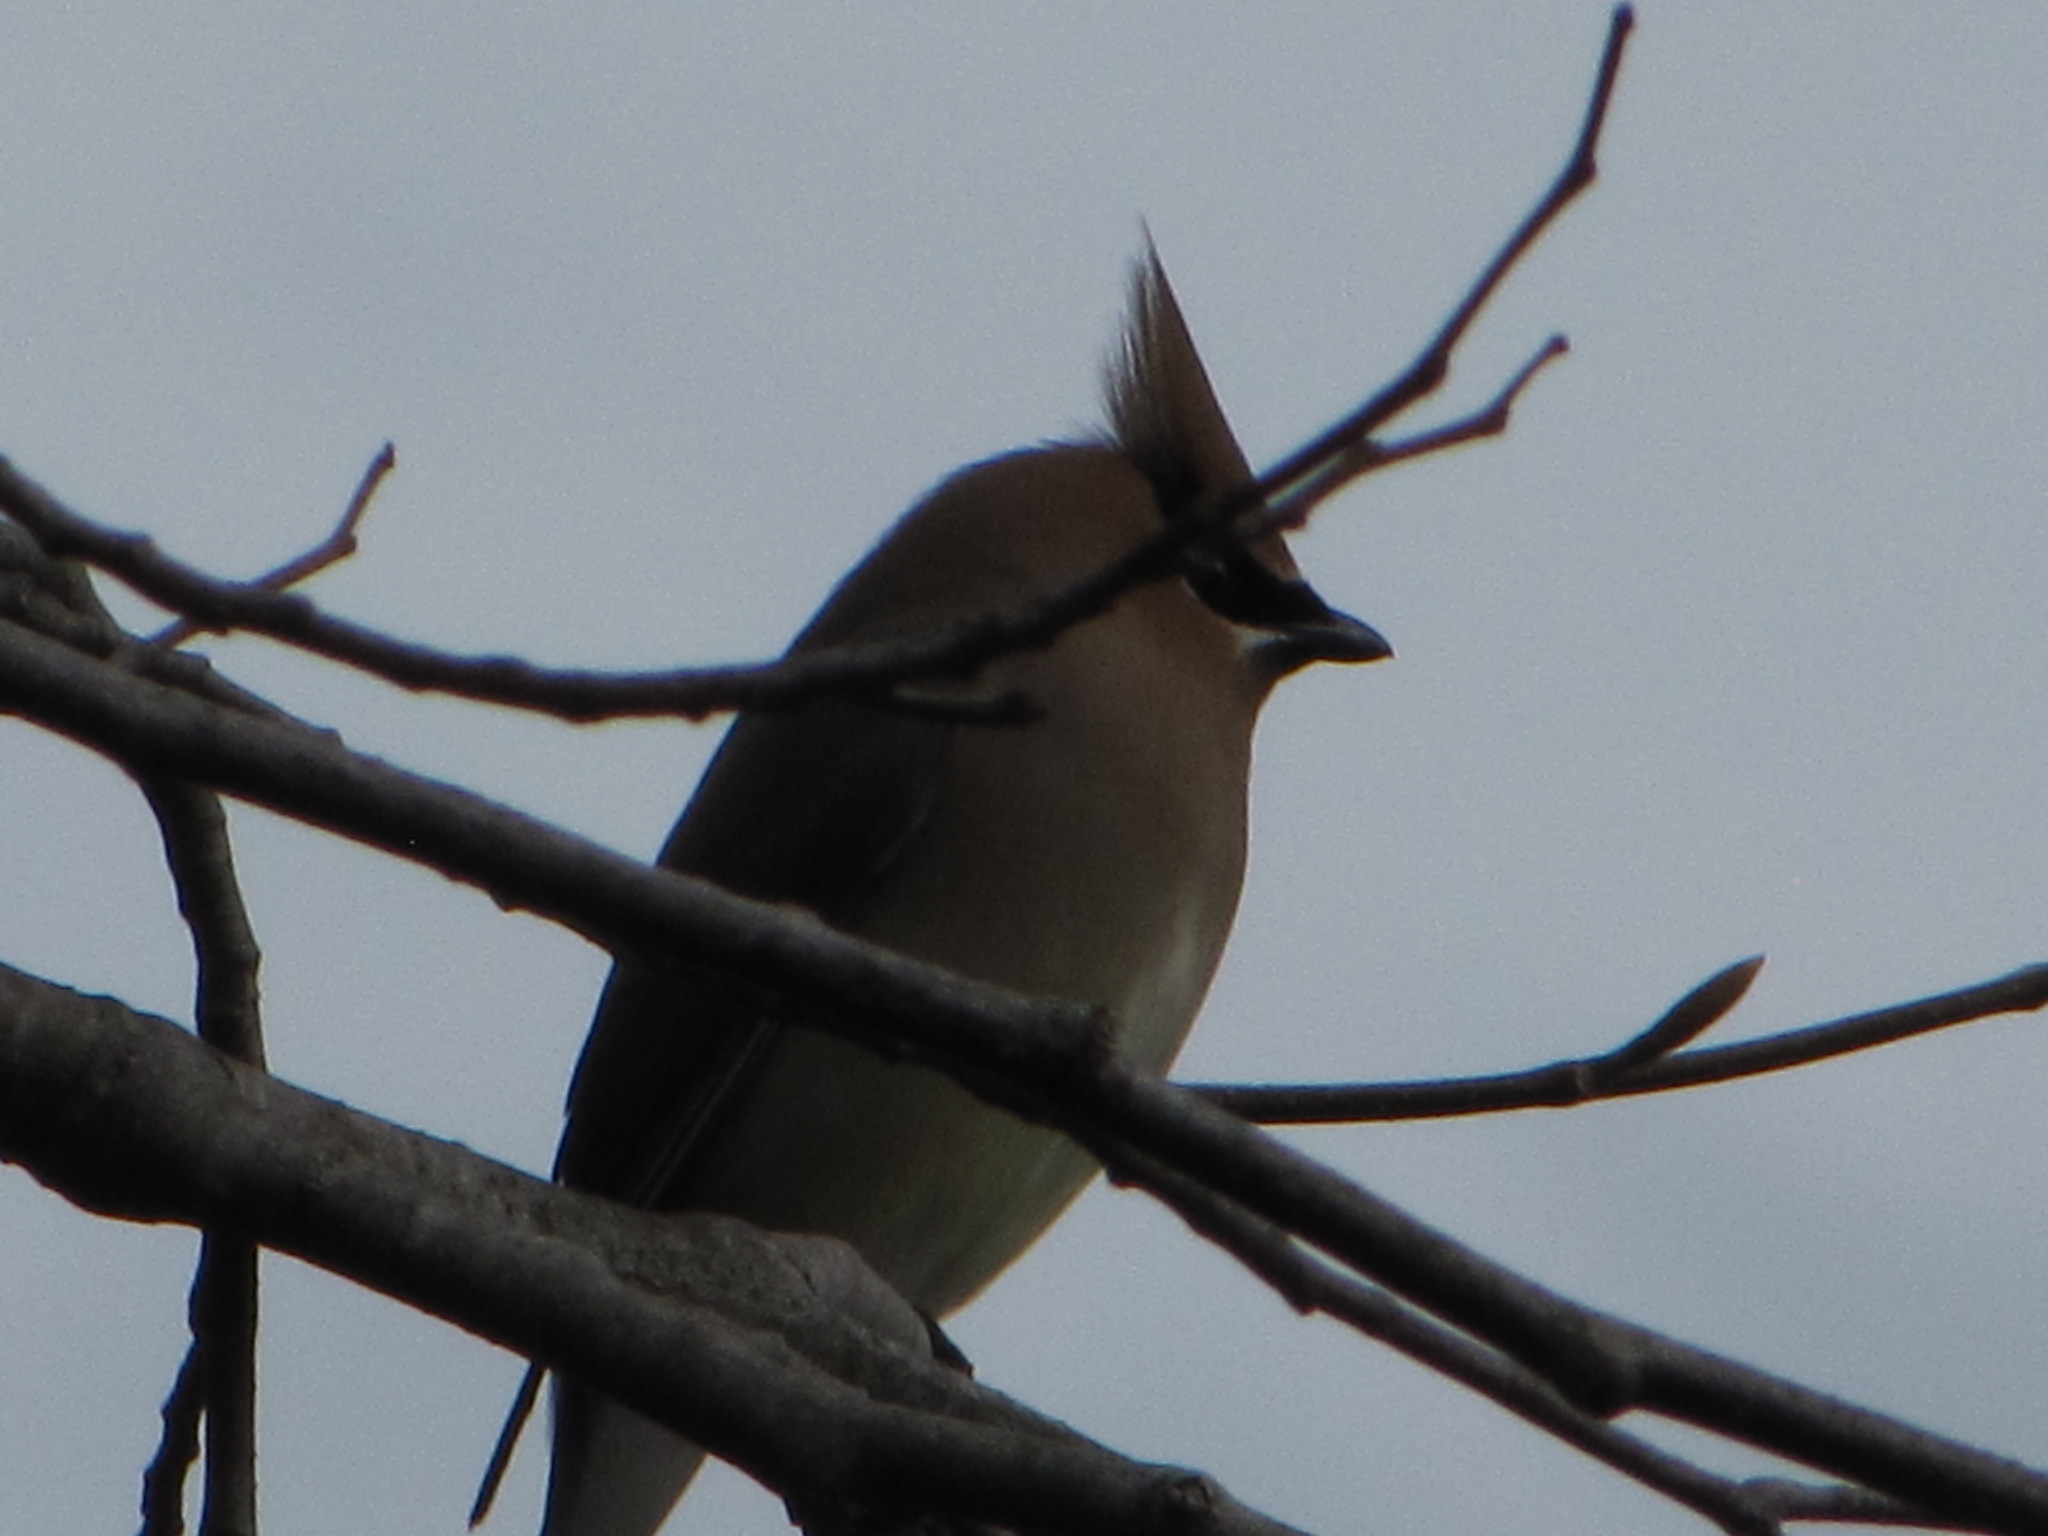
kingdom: Animalia
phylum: Chordata
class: Aves
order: Passeriformes
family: Bombycillidae
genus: Bombycilla
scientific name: Bombycilla cedrorum
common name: Cedar waxwing
